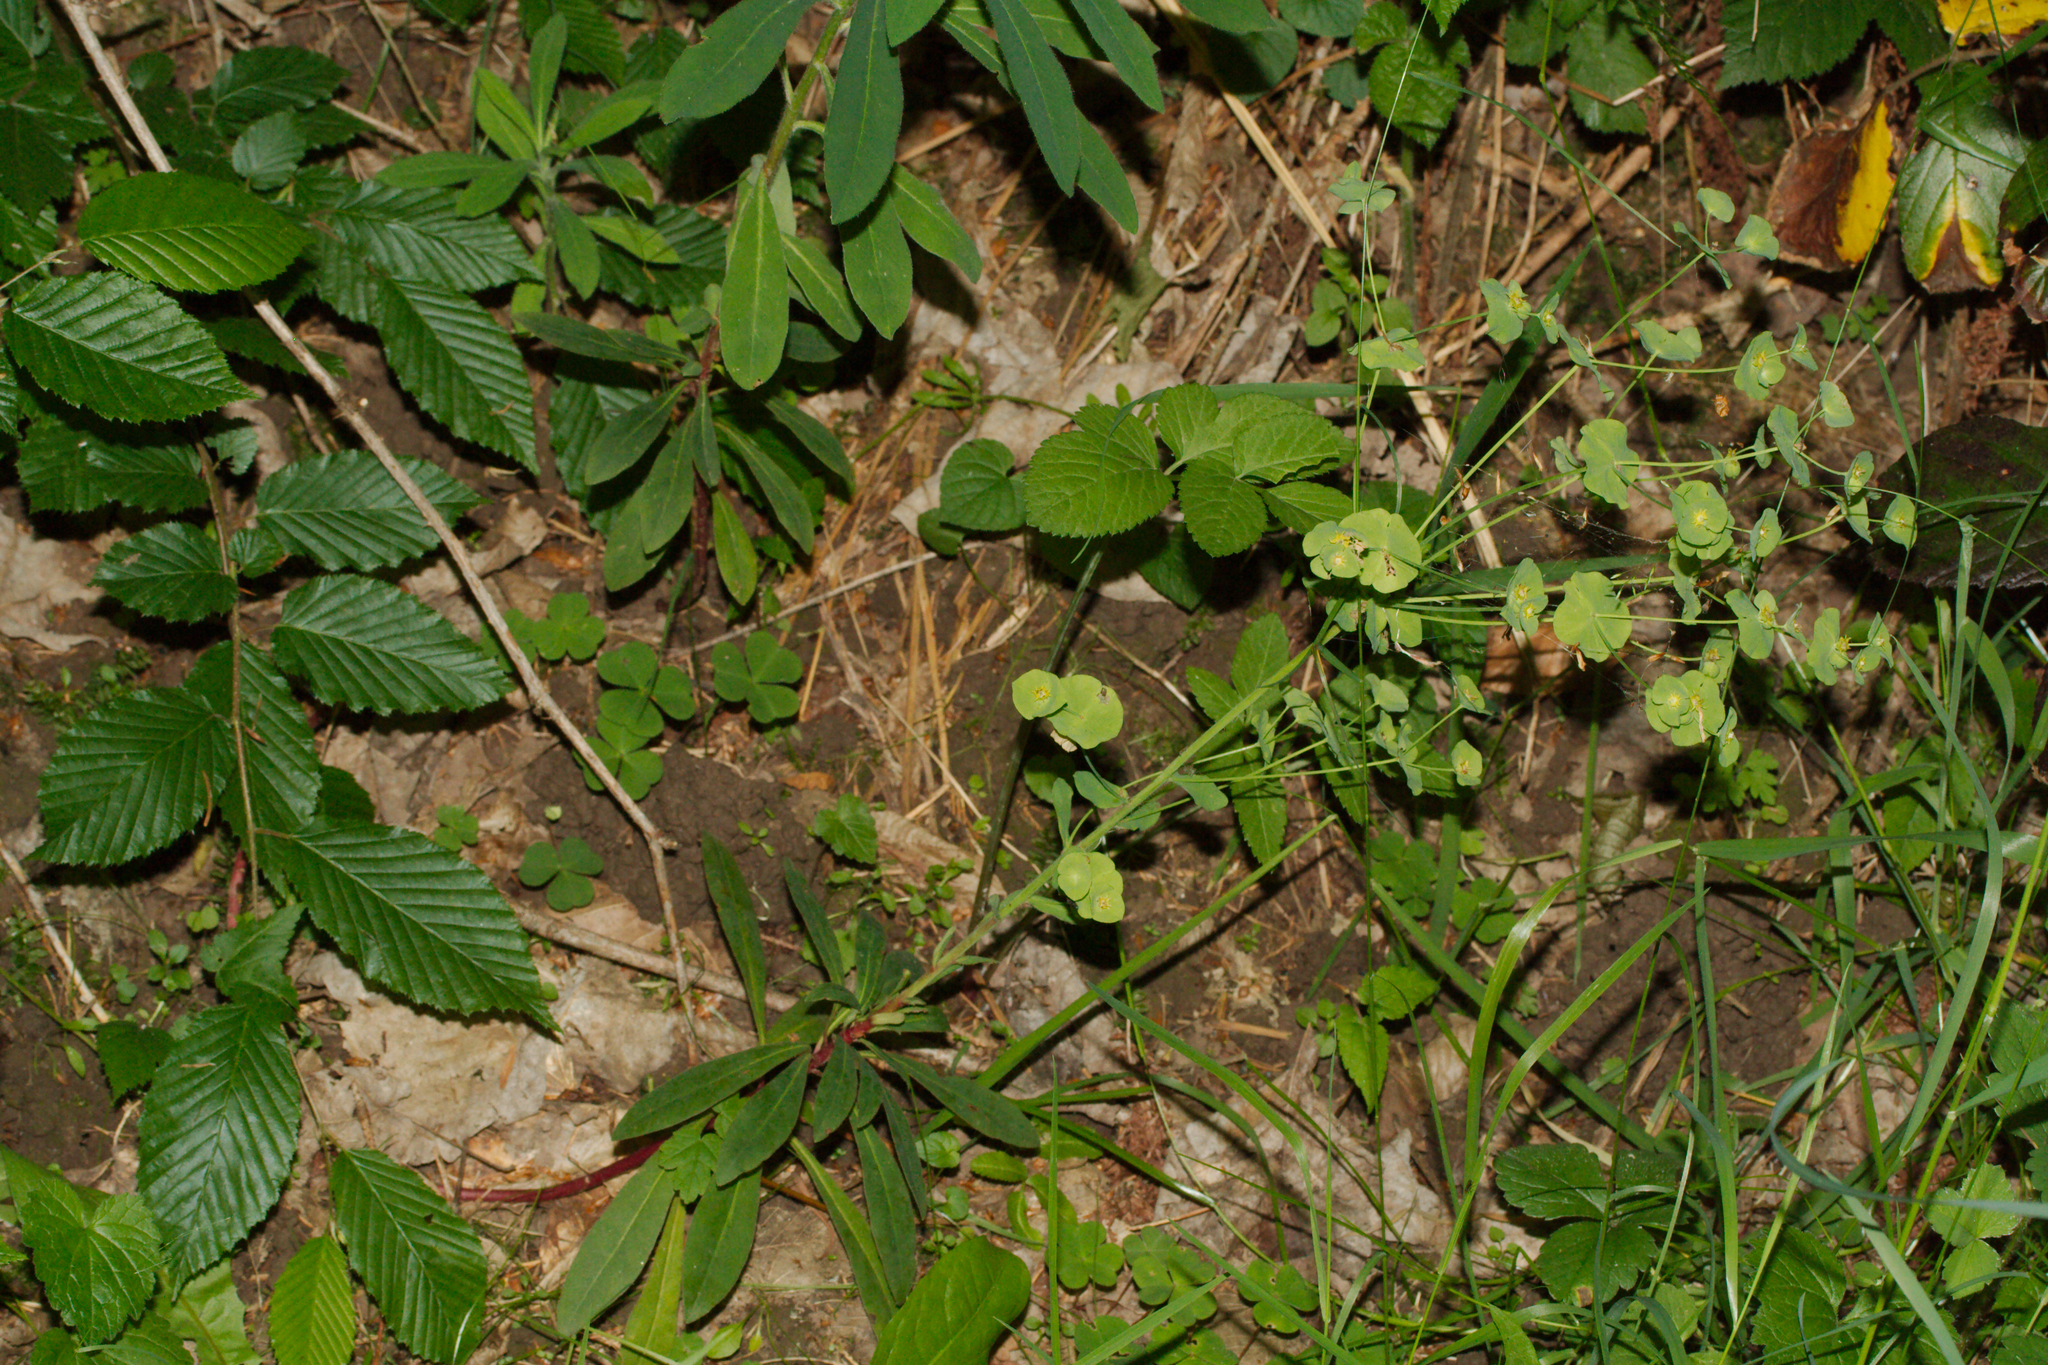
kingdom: Plantae
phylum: Tracheophyta
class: Magnoliopsida
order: Malpighiales
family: Euphorbiaceae
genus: Euphorbia
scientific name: Euphorbia amygdaloides
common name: Wood spurge
